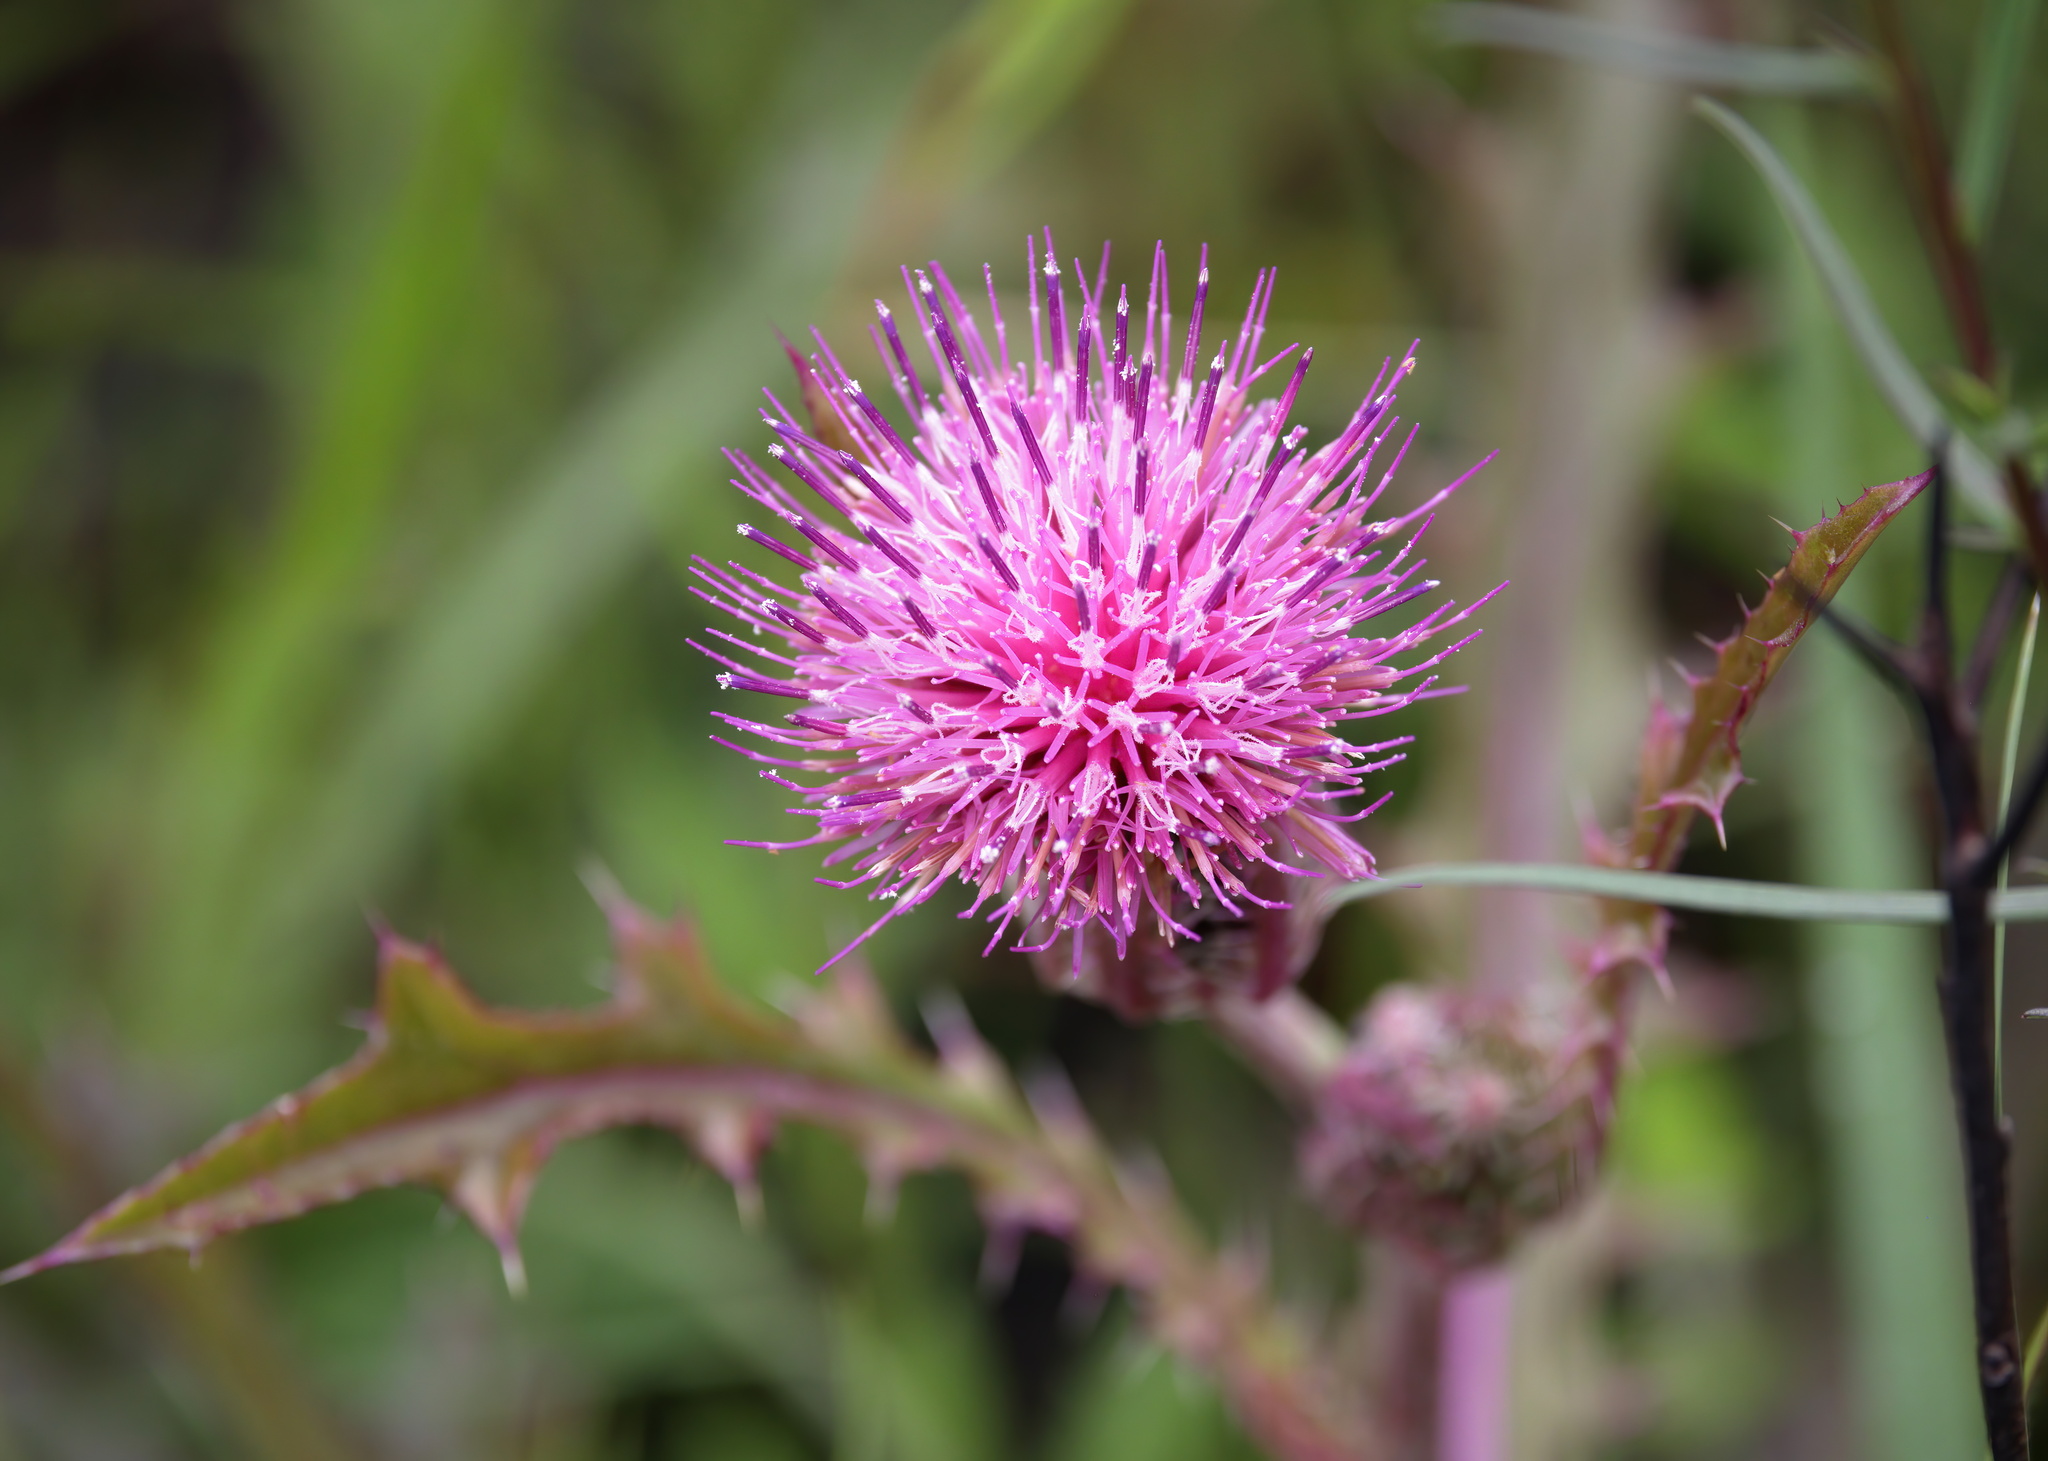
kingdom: Plantae
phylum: Tracheophyta
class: Magnoliopsida
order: Asterales
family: Asteraceae
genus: Cirsium
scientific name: Cirsium horridulum
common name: Bristly thistle
